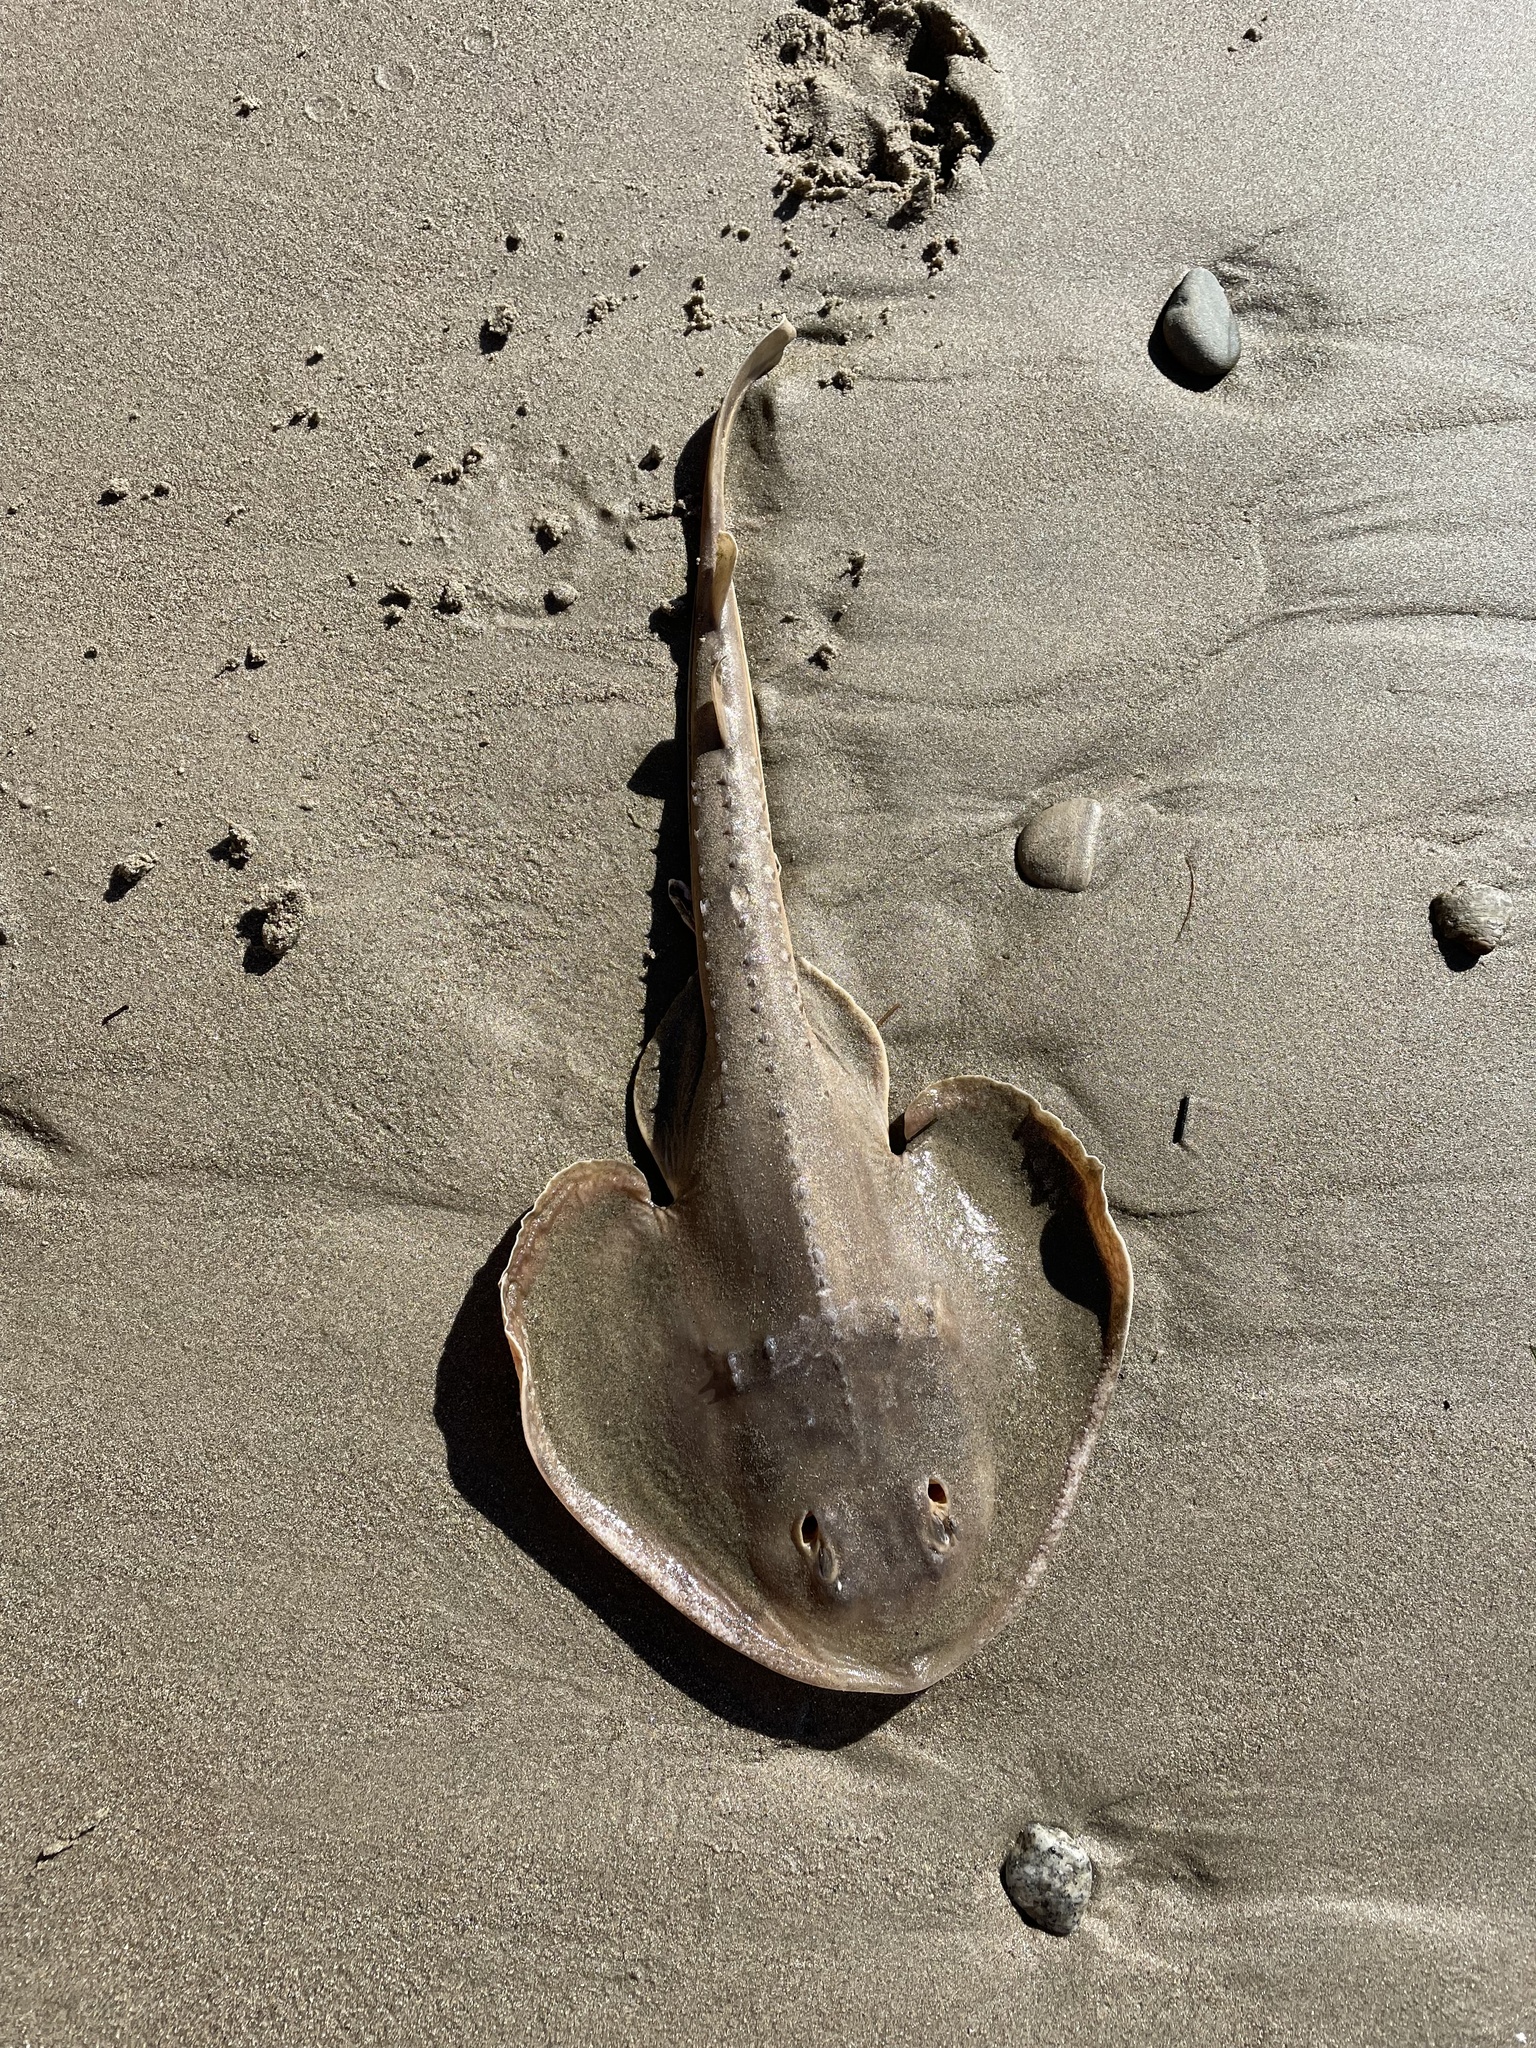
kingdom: Animalia
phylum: Chordata
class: Elasmobranchii
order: Rhinopristiformes
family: Rhinobatidae
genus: Platyrhinoidis
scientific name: Platyrhinoidis triseriata
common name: Thornback
